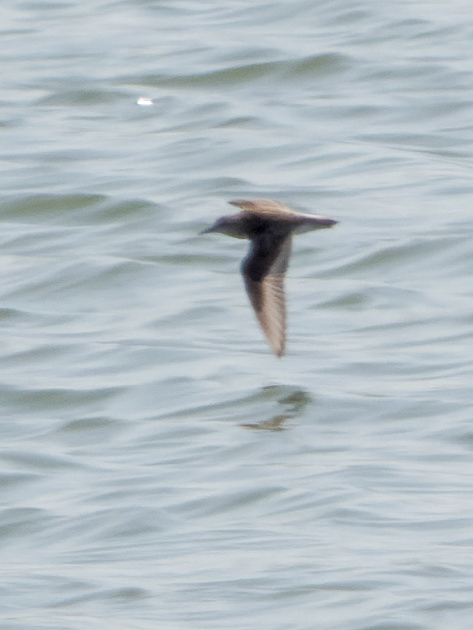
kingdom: Animalia
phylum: Chordata
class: Aves
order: Charadriiformes
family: Scolopacidae
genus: Calidris
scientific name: Calidris minuta
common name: Little stint
